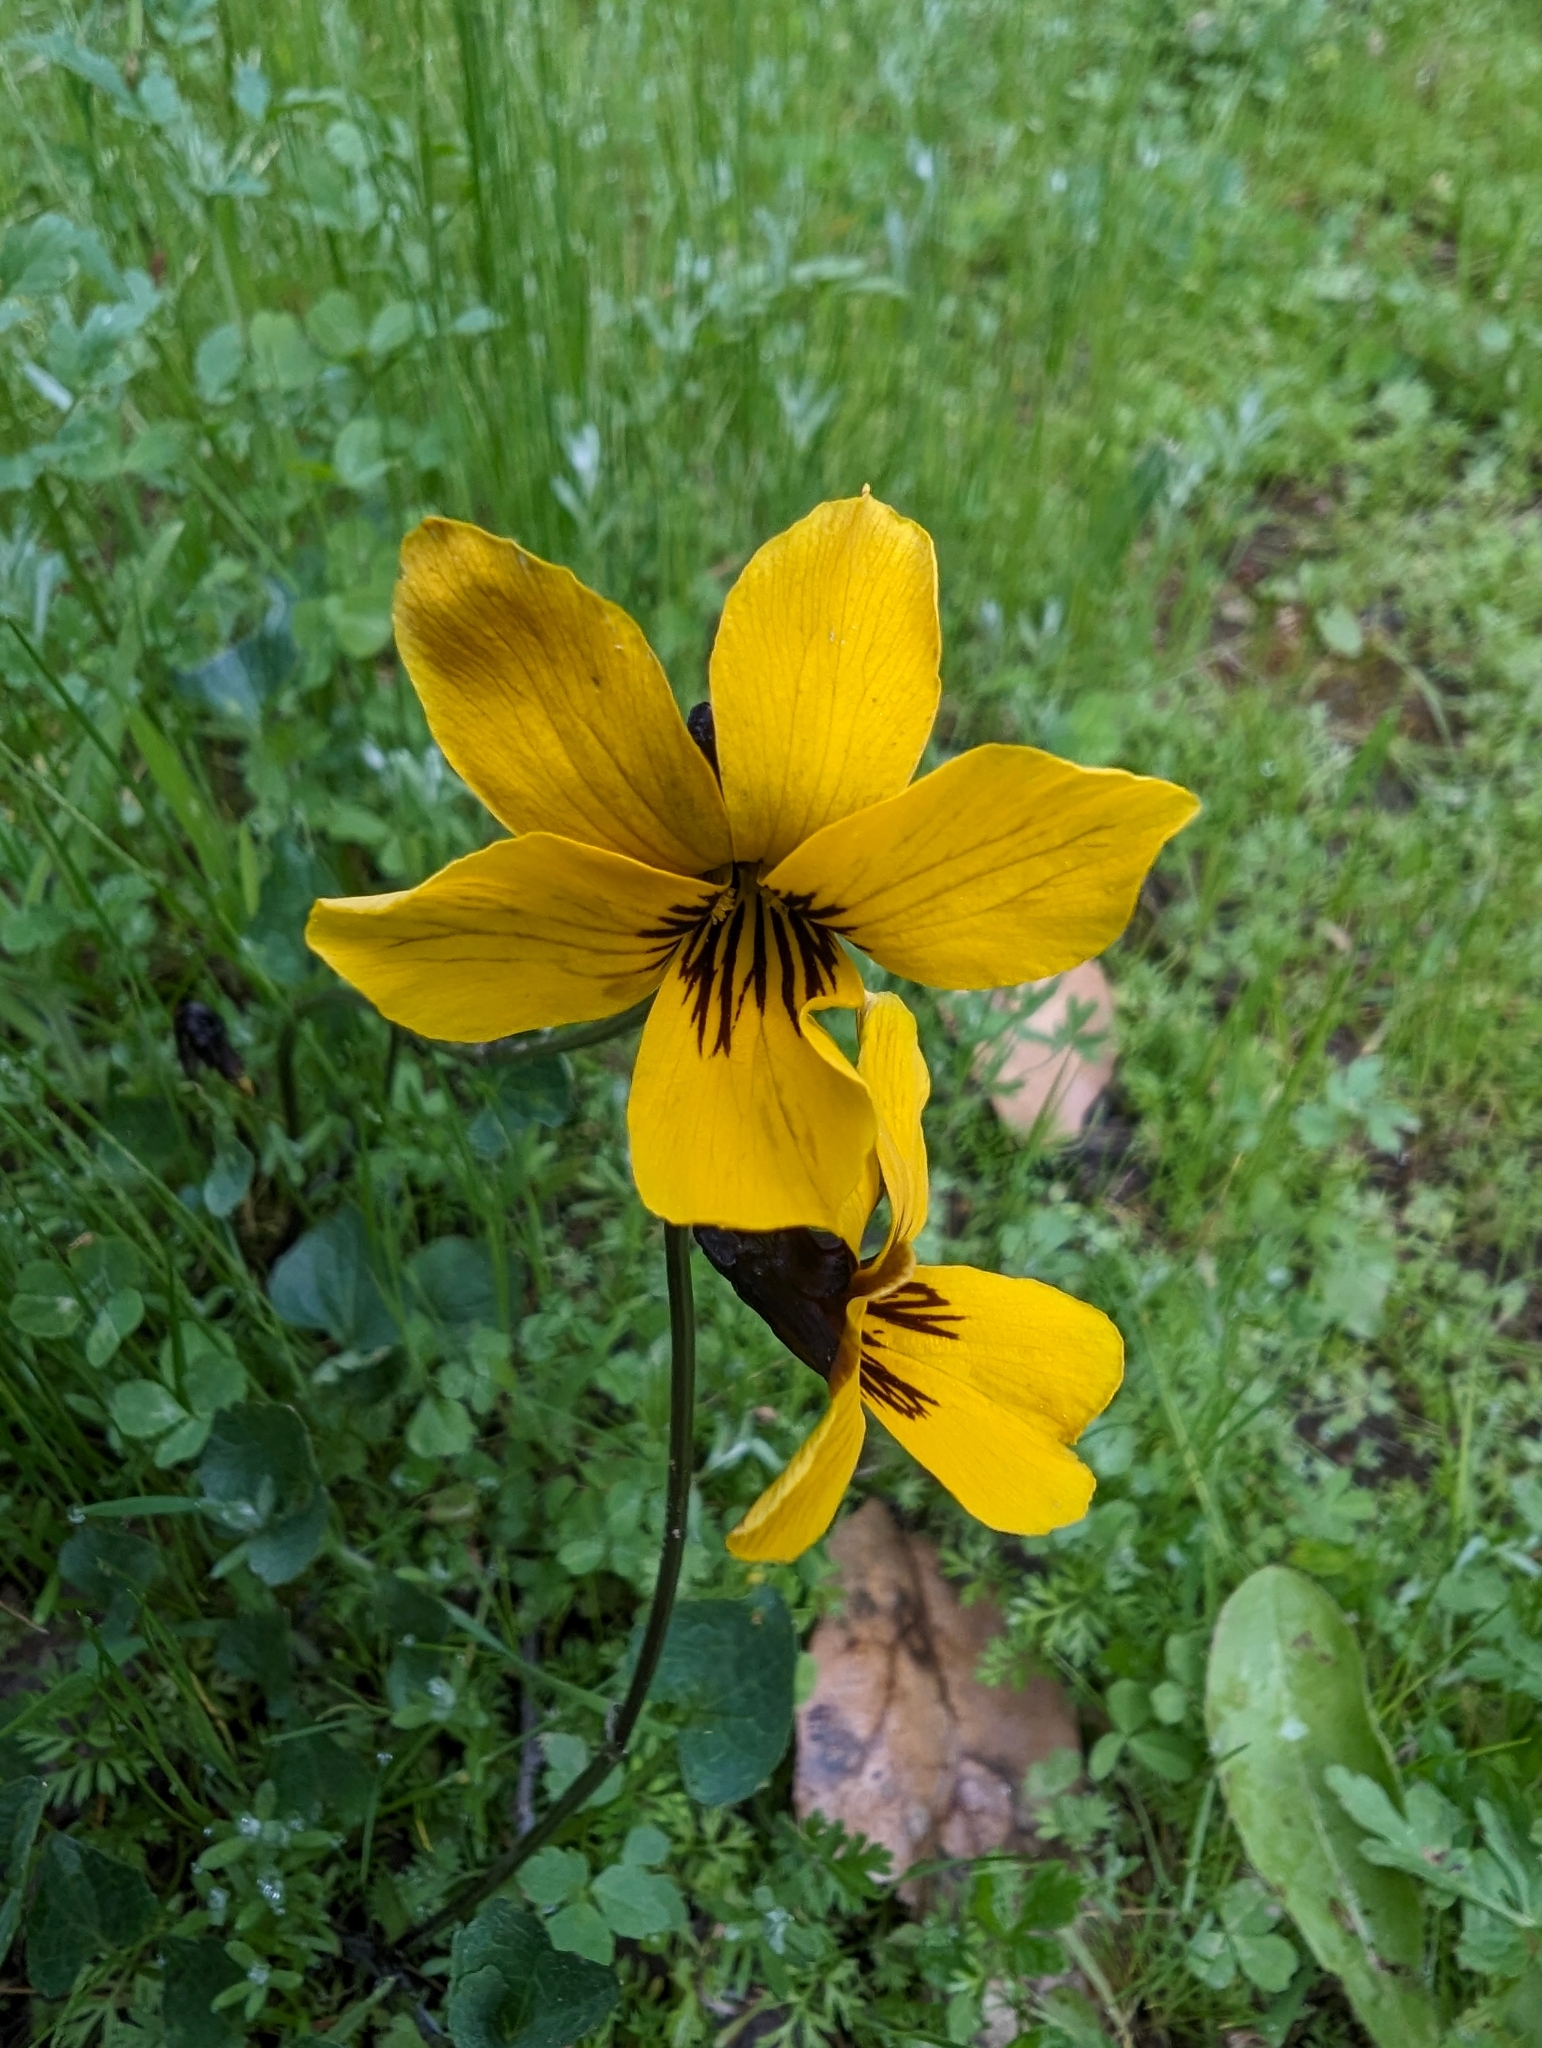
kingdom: Plantae
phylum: Tracheophyta
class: Magnoliopsida
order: Malpighiales
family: Violaceae
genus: Viola
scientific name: Viola pedunculata
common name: California golden violet
